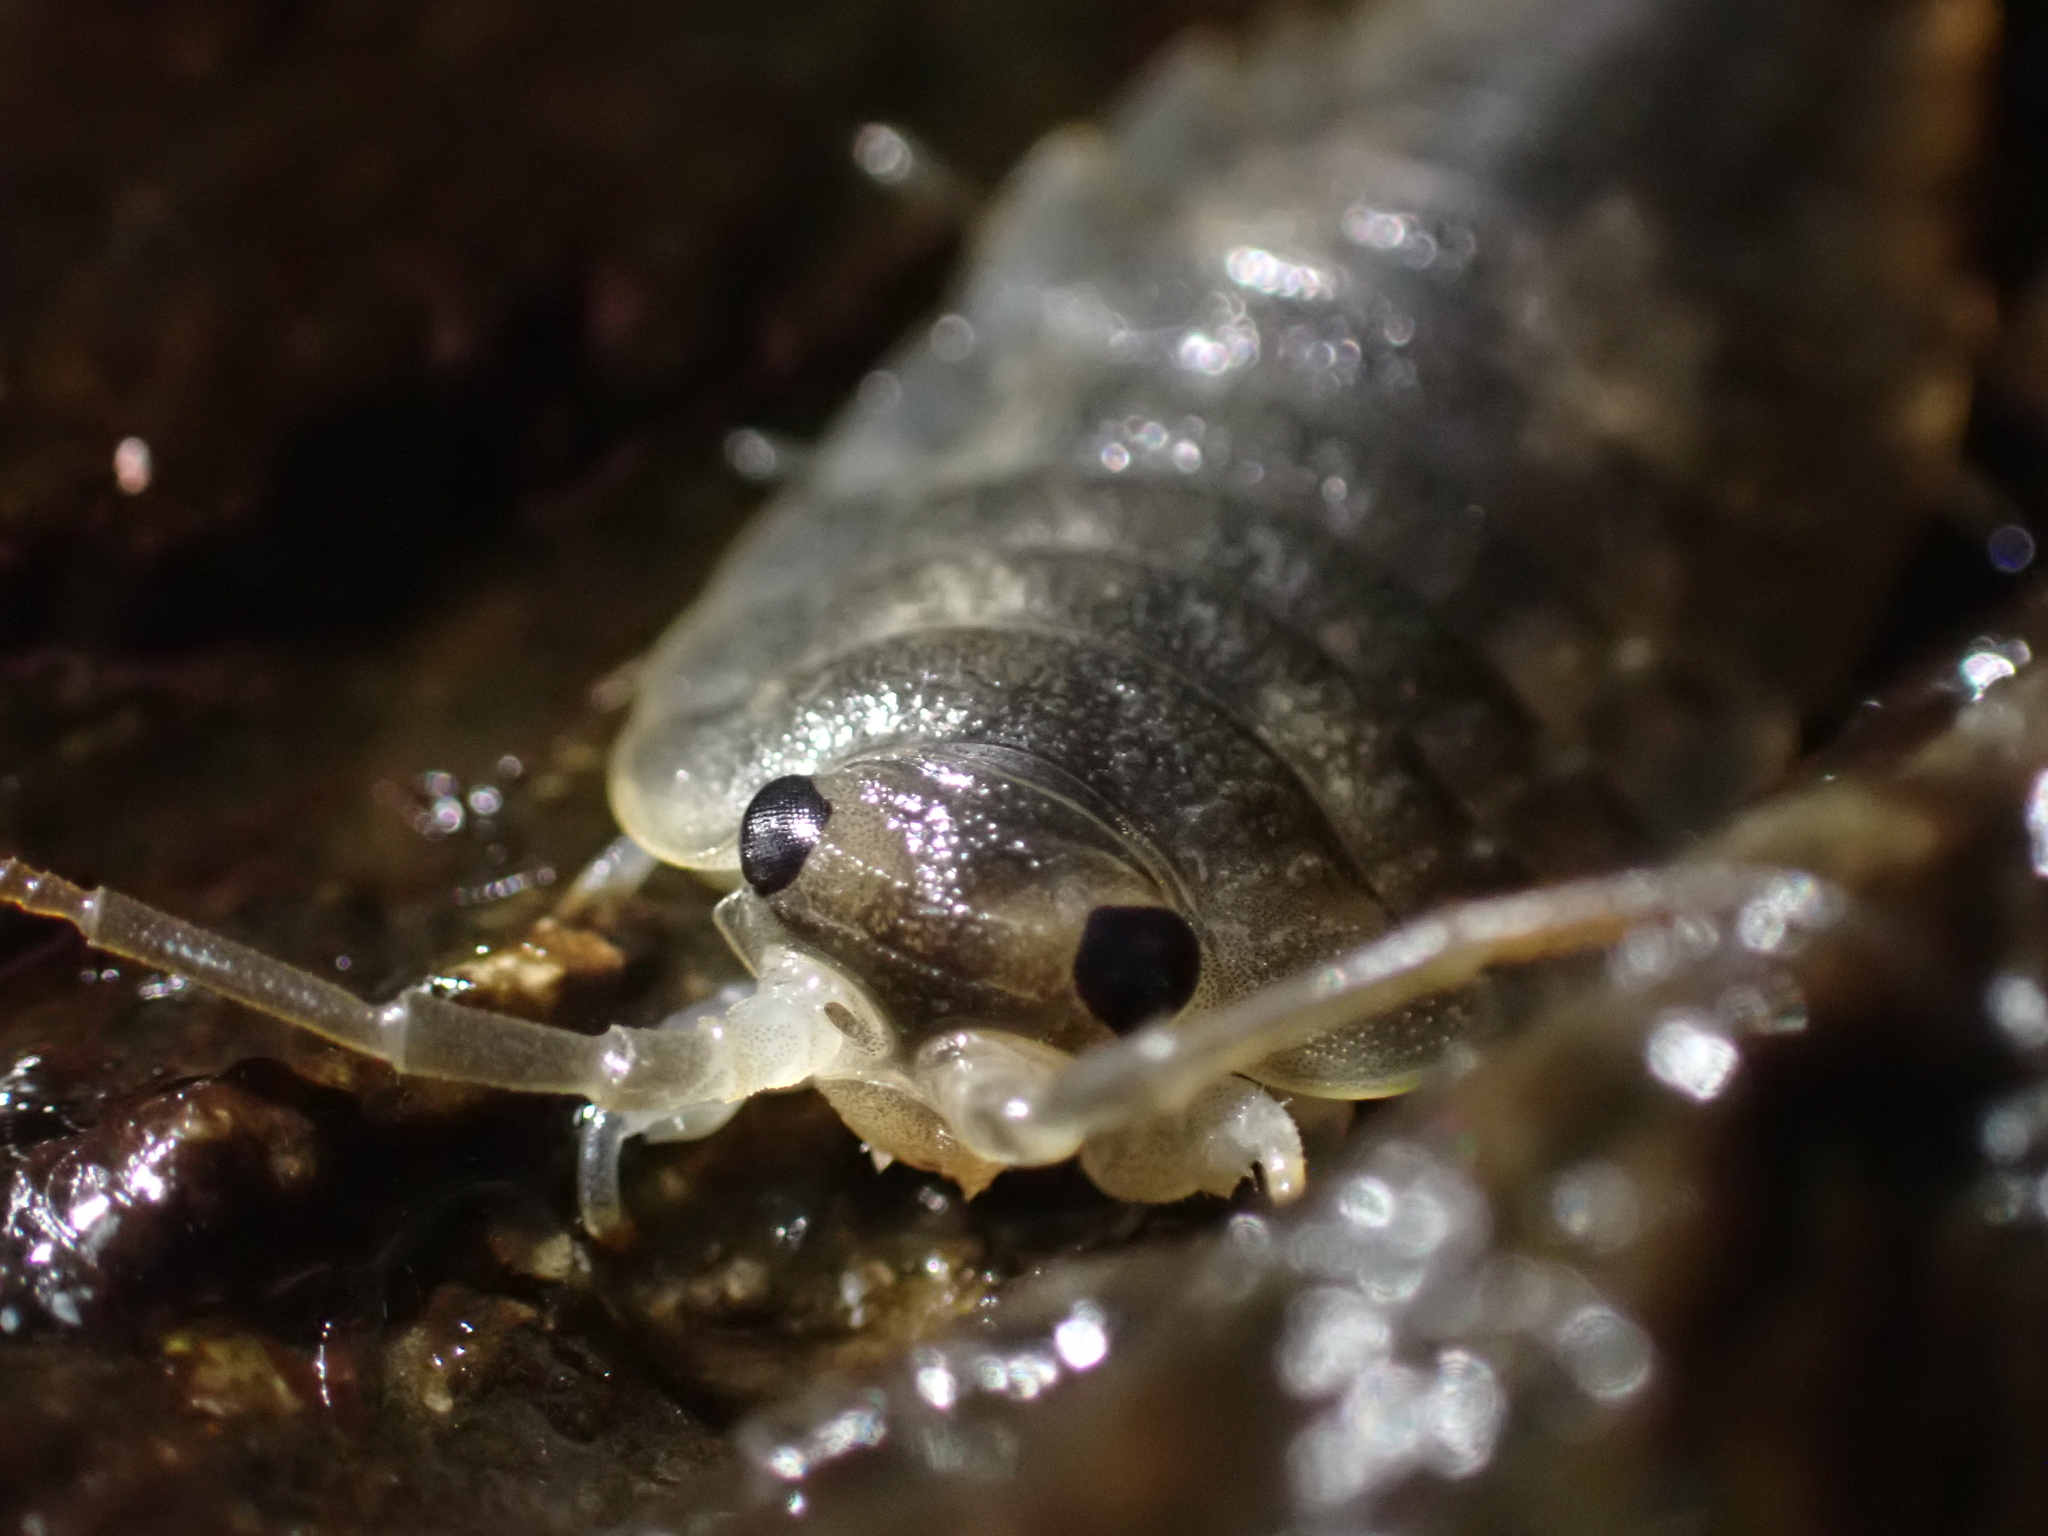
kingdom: Animalia
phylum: Arthropoda
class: Malacostraca
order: Isopoda
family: Ligiidae
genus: Ligia
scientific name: Ligia pallasii
